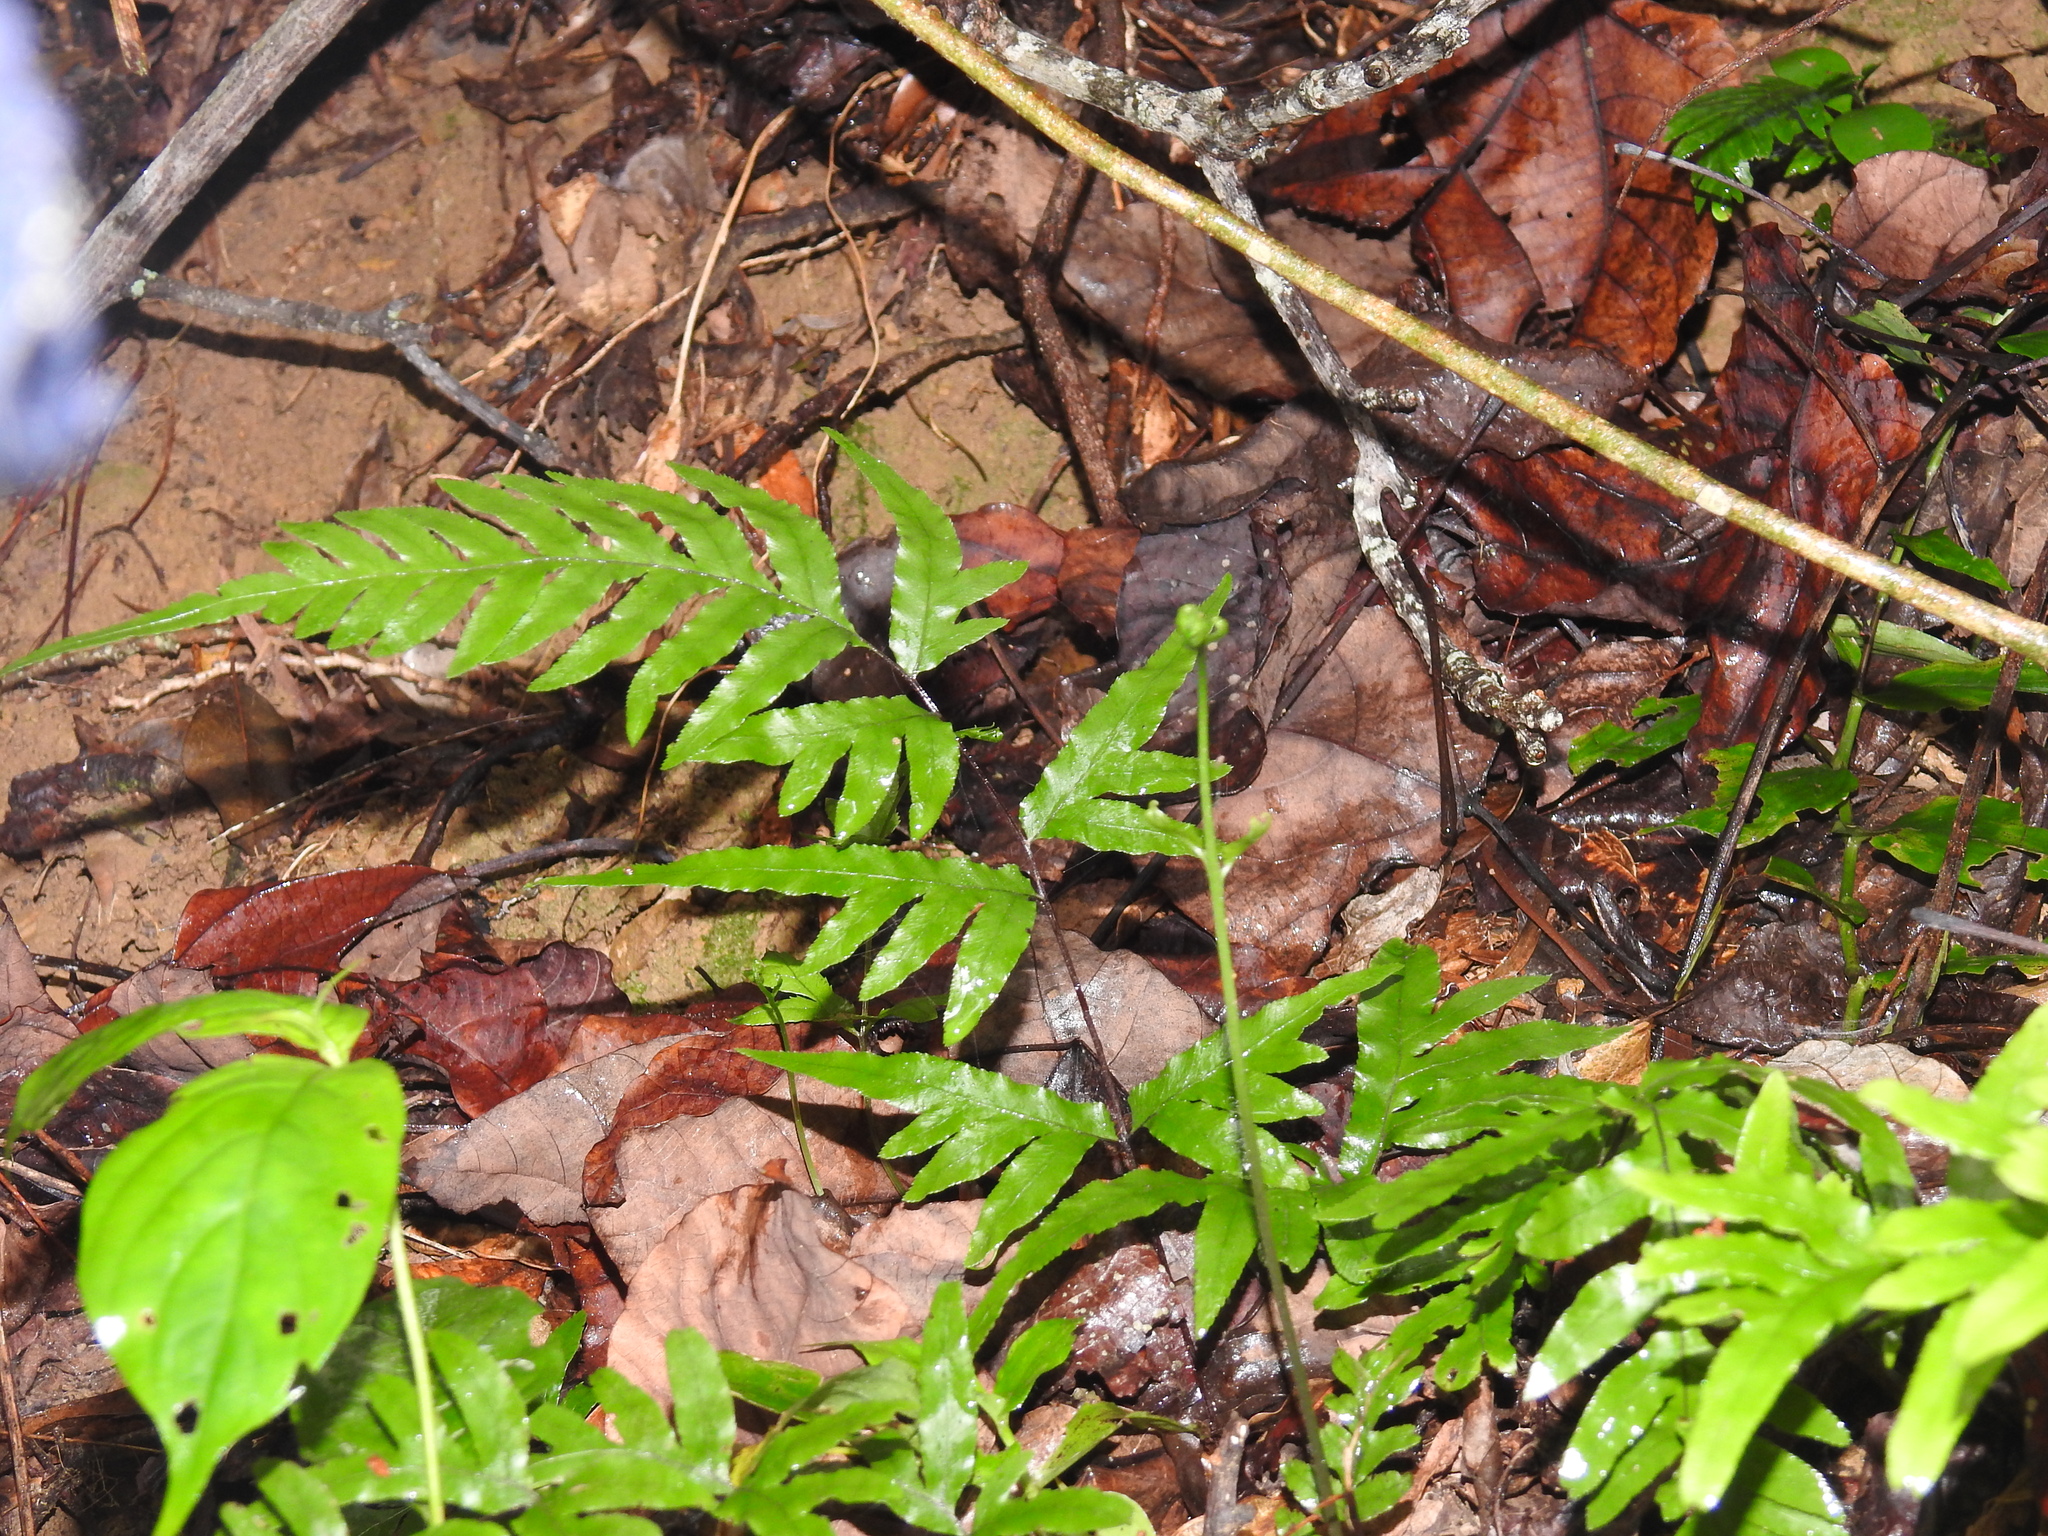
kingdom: Plantae
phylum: Tracheophyta
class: Polypodiopsida
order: Polypodiales
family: Pteridaceae
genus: Pteris
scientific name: Pteris semipinnata
